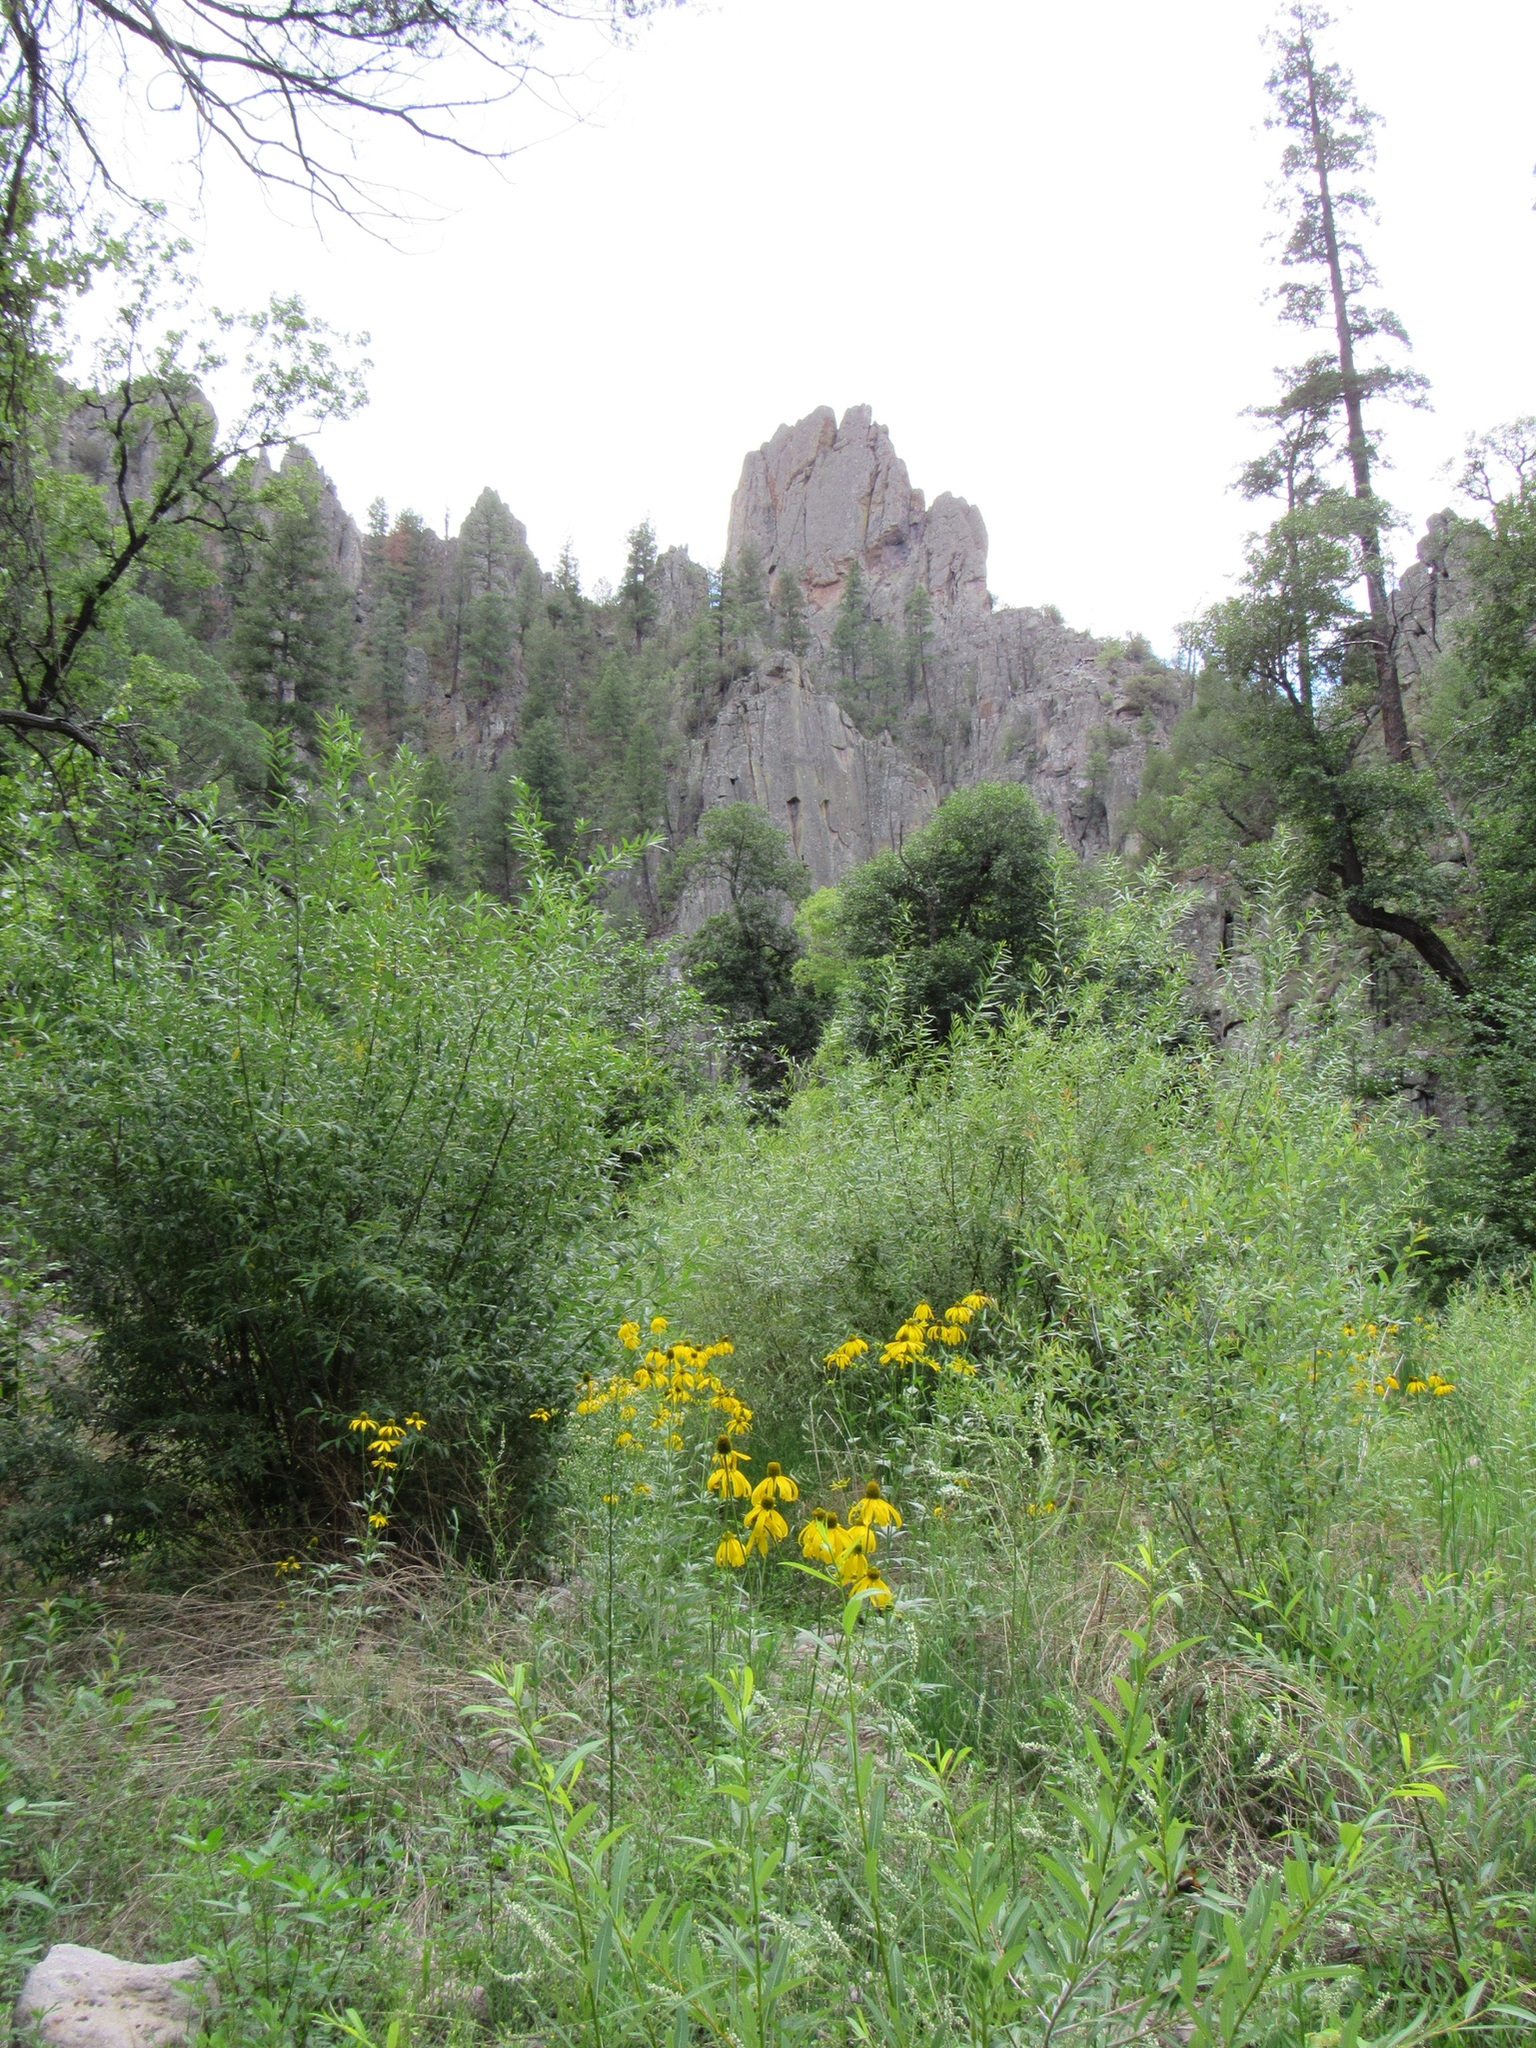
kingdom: Plantae
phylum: Tracheophyta
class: Magnoliopsida
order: Asterales
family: Asteraceae
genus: Rudbeckia
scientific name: Rudbeckia laciniata
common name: Coneflower
